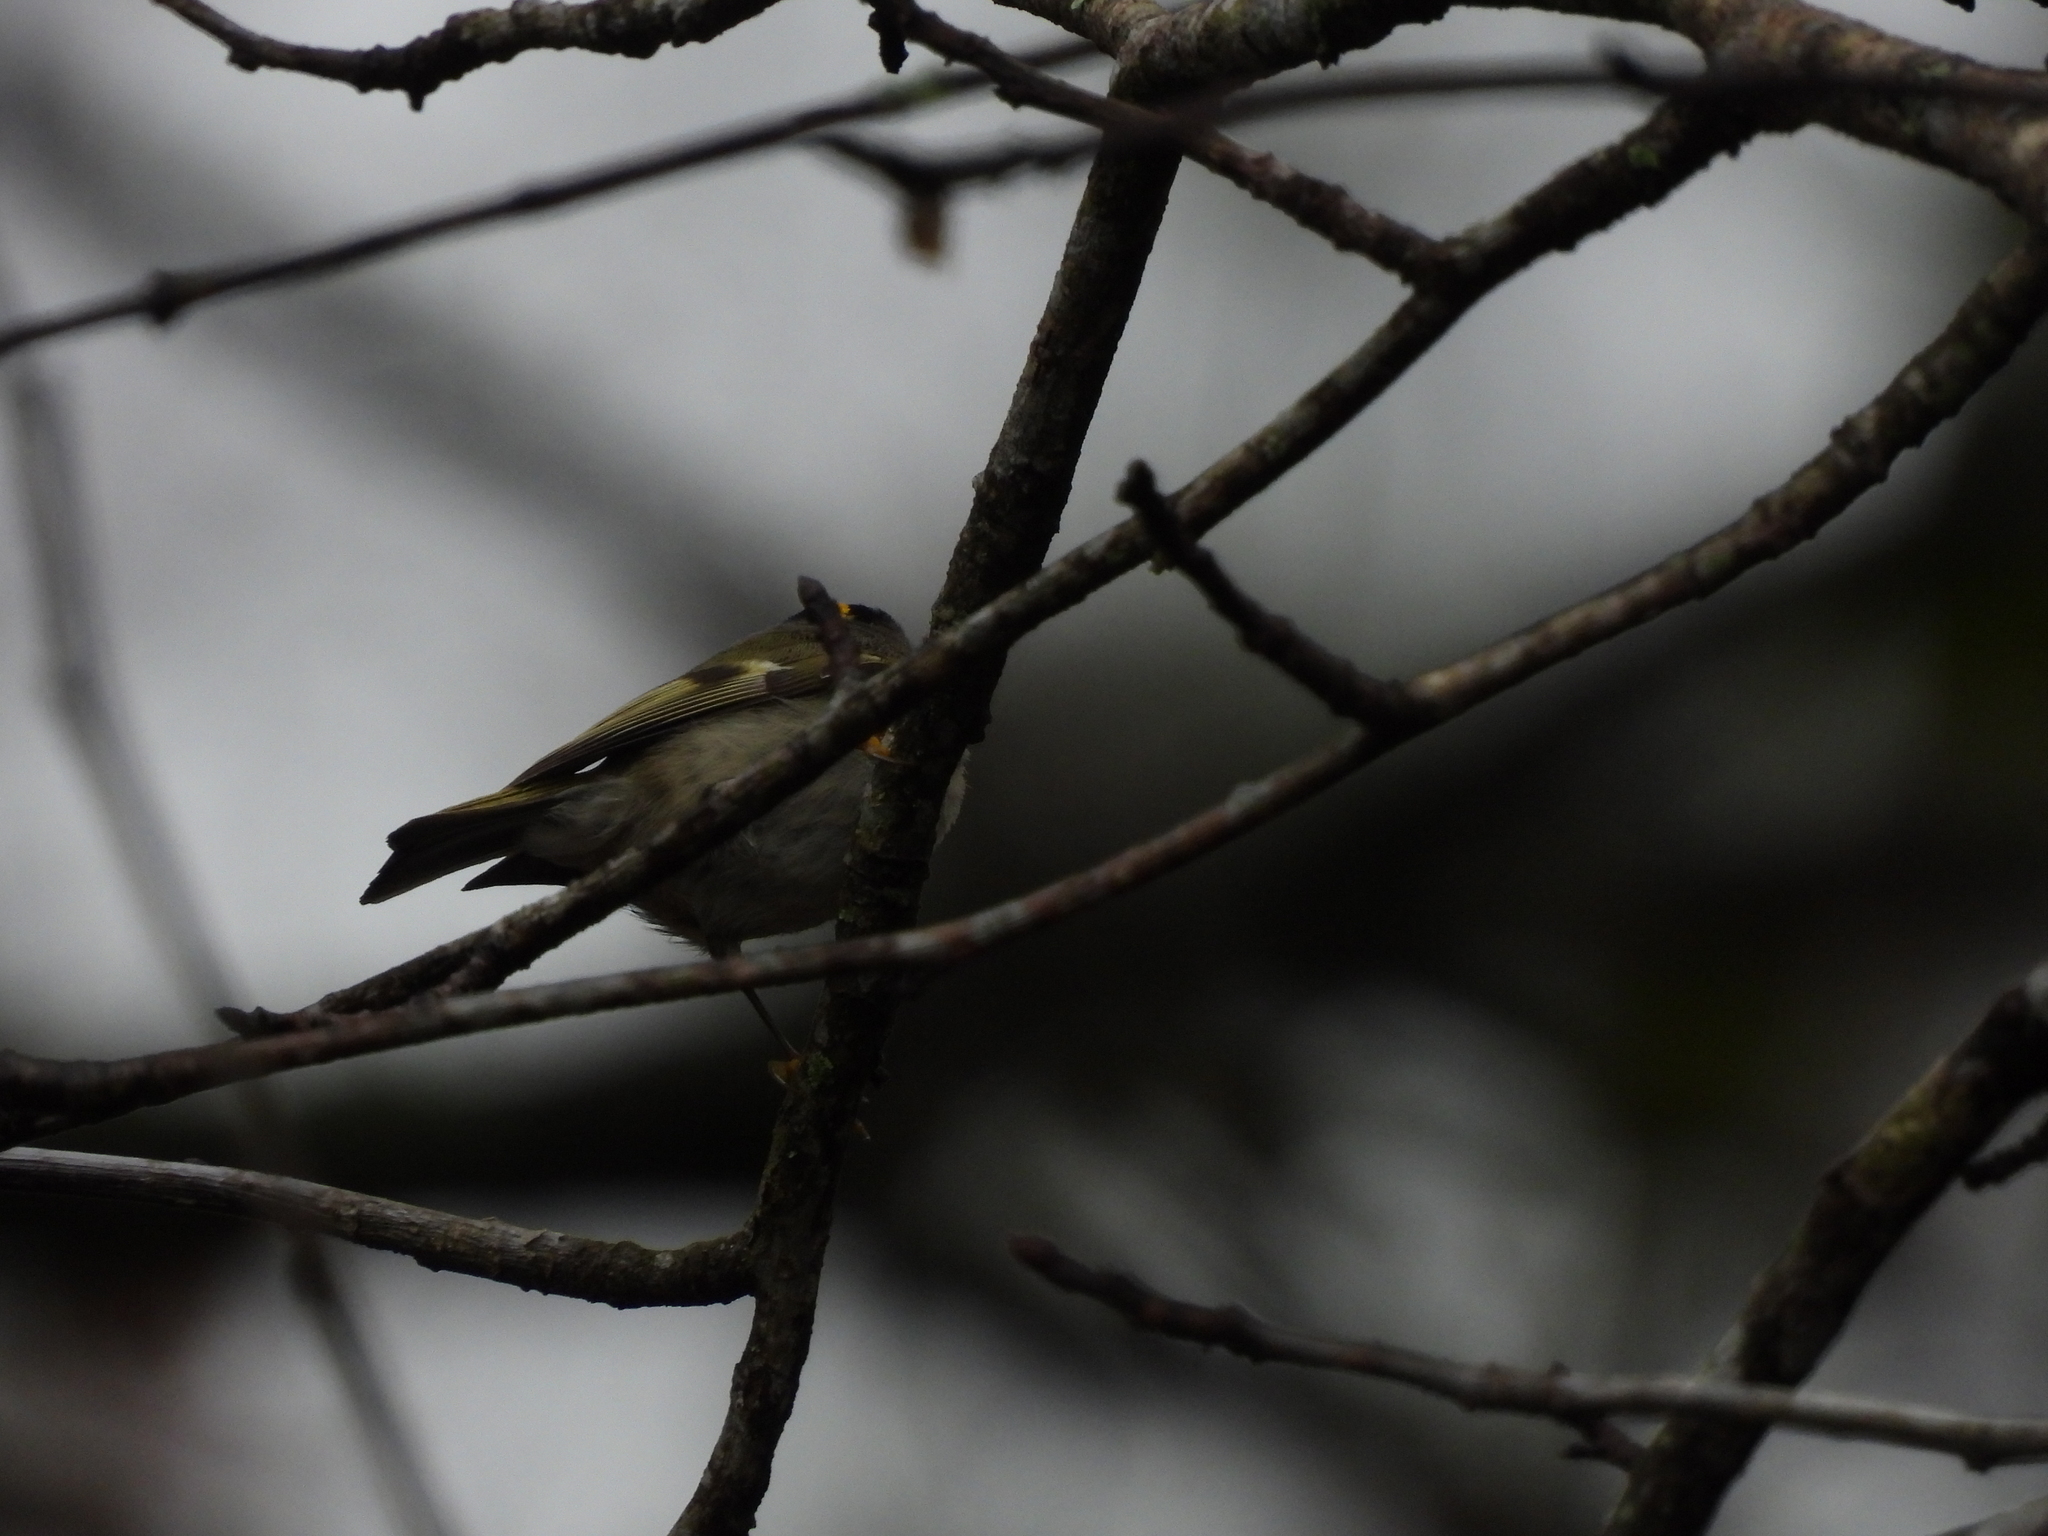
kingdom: Animalia
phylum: Chordata
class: Aves
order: Passeriformes
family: Regulidae
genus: Regulus
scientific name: Regulus satrapa
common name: Golden-crowned kinglet
